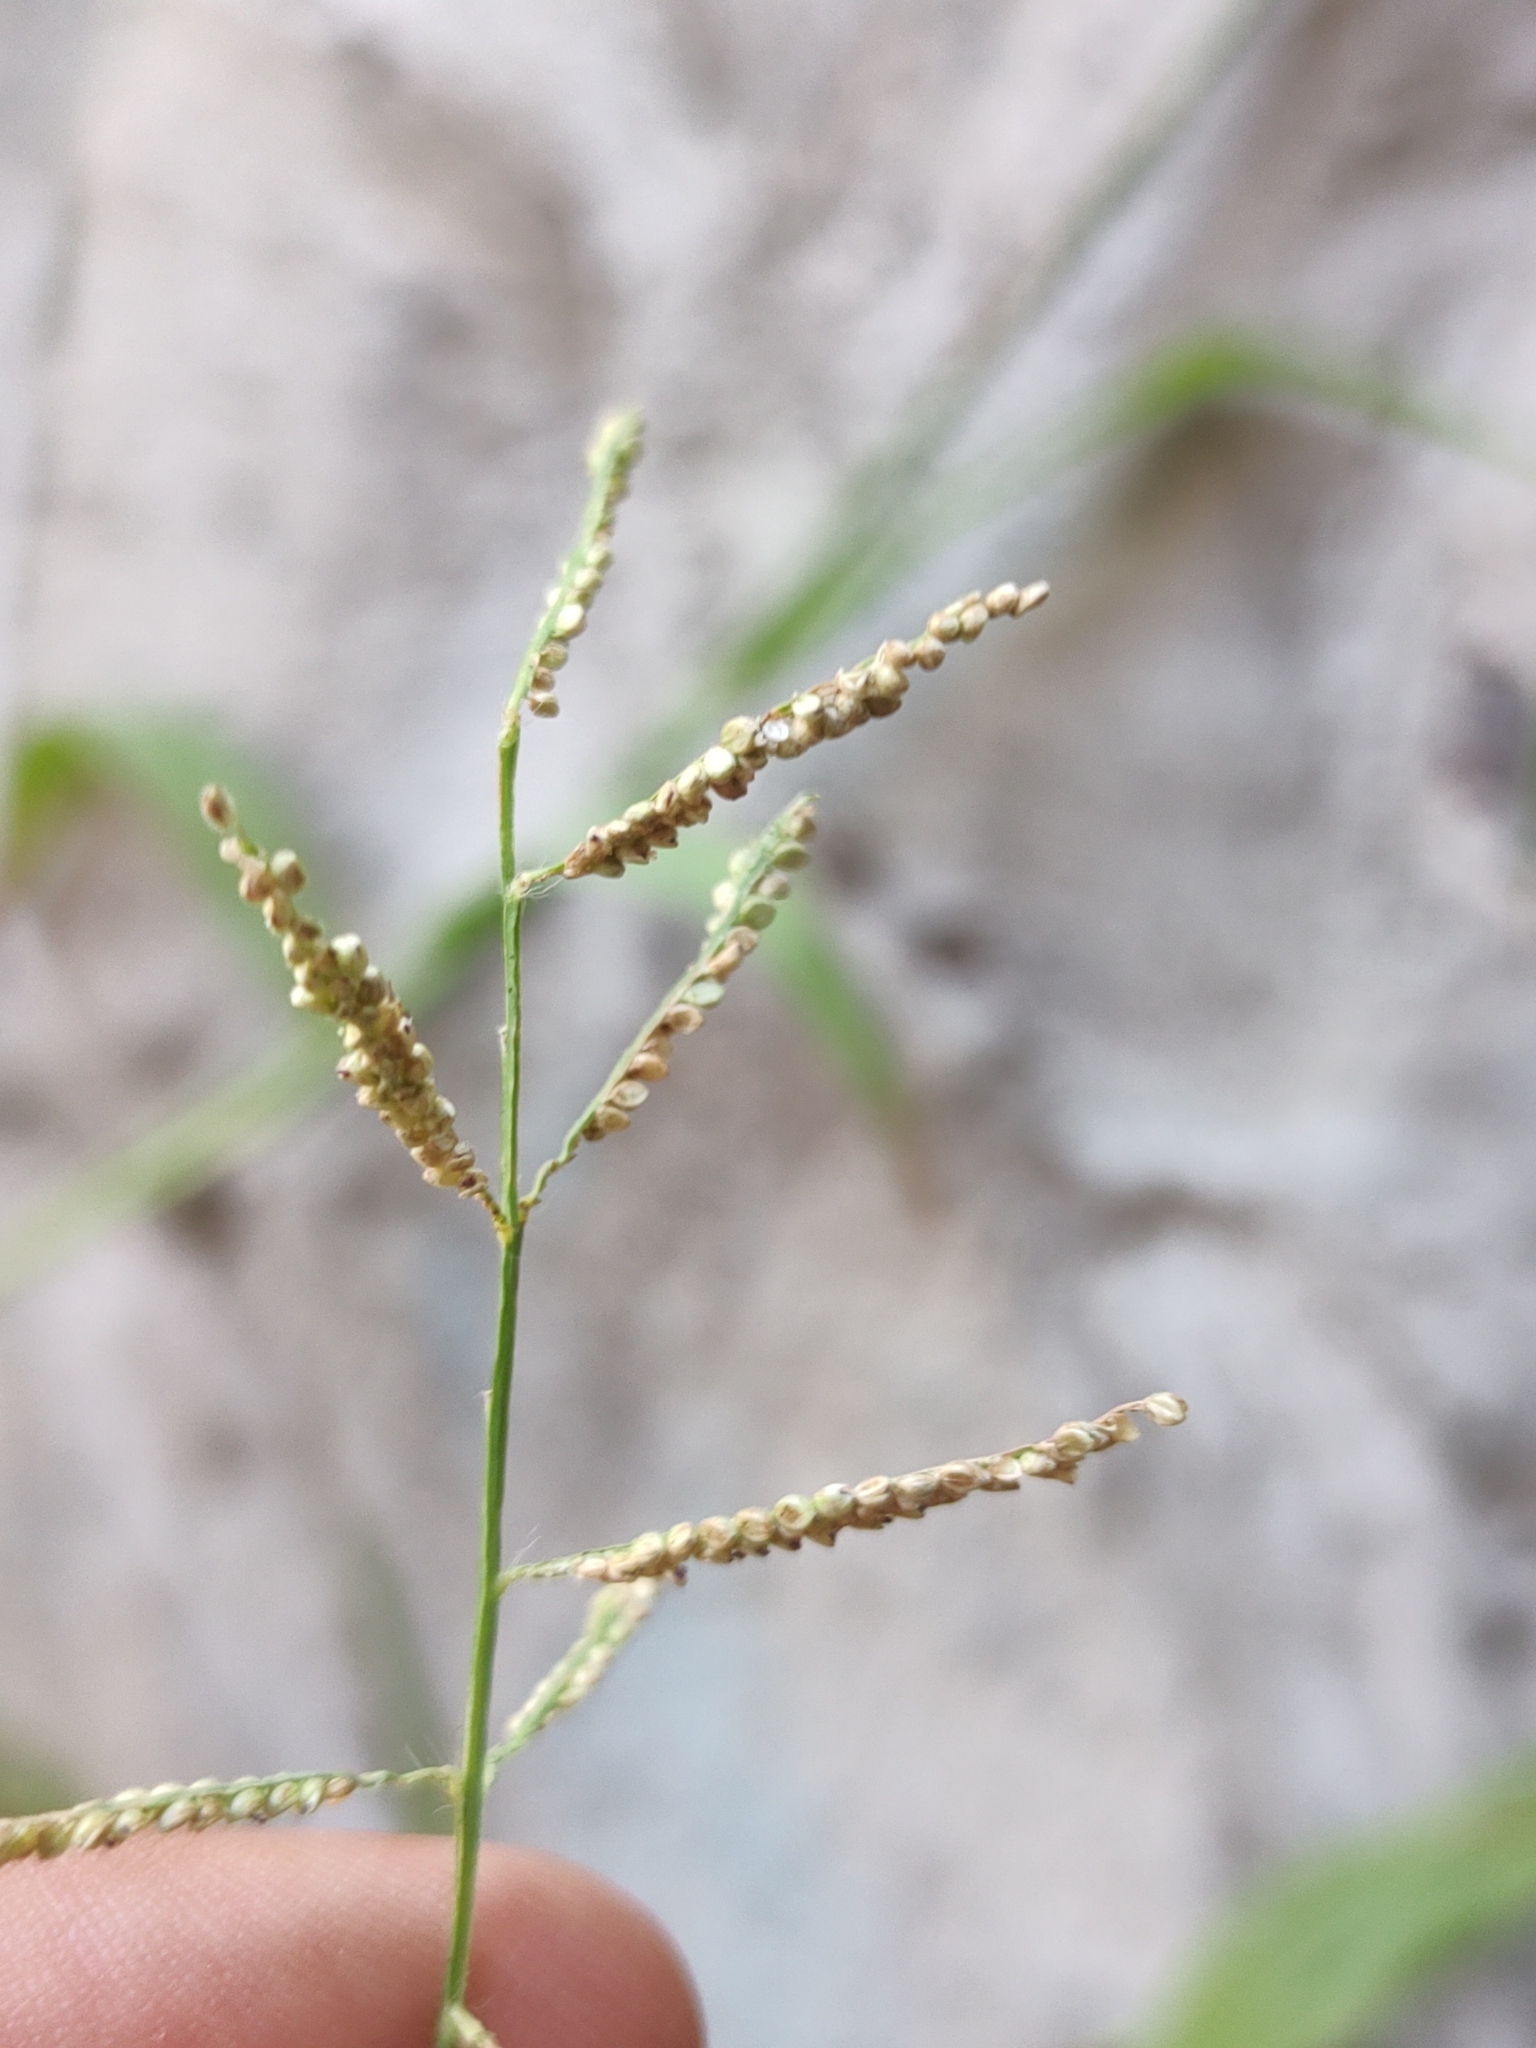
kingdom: Plantae
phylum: Tracheophyta
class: Liliopsida
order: Poales
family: Poaceae
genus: Paspalum
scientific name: Paspalum paniculatum
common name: Arrocillo
